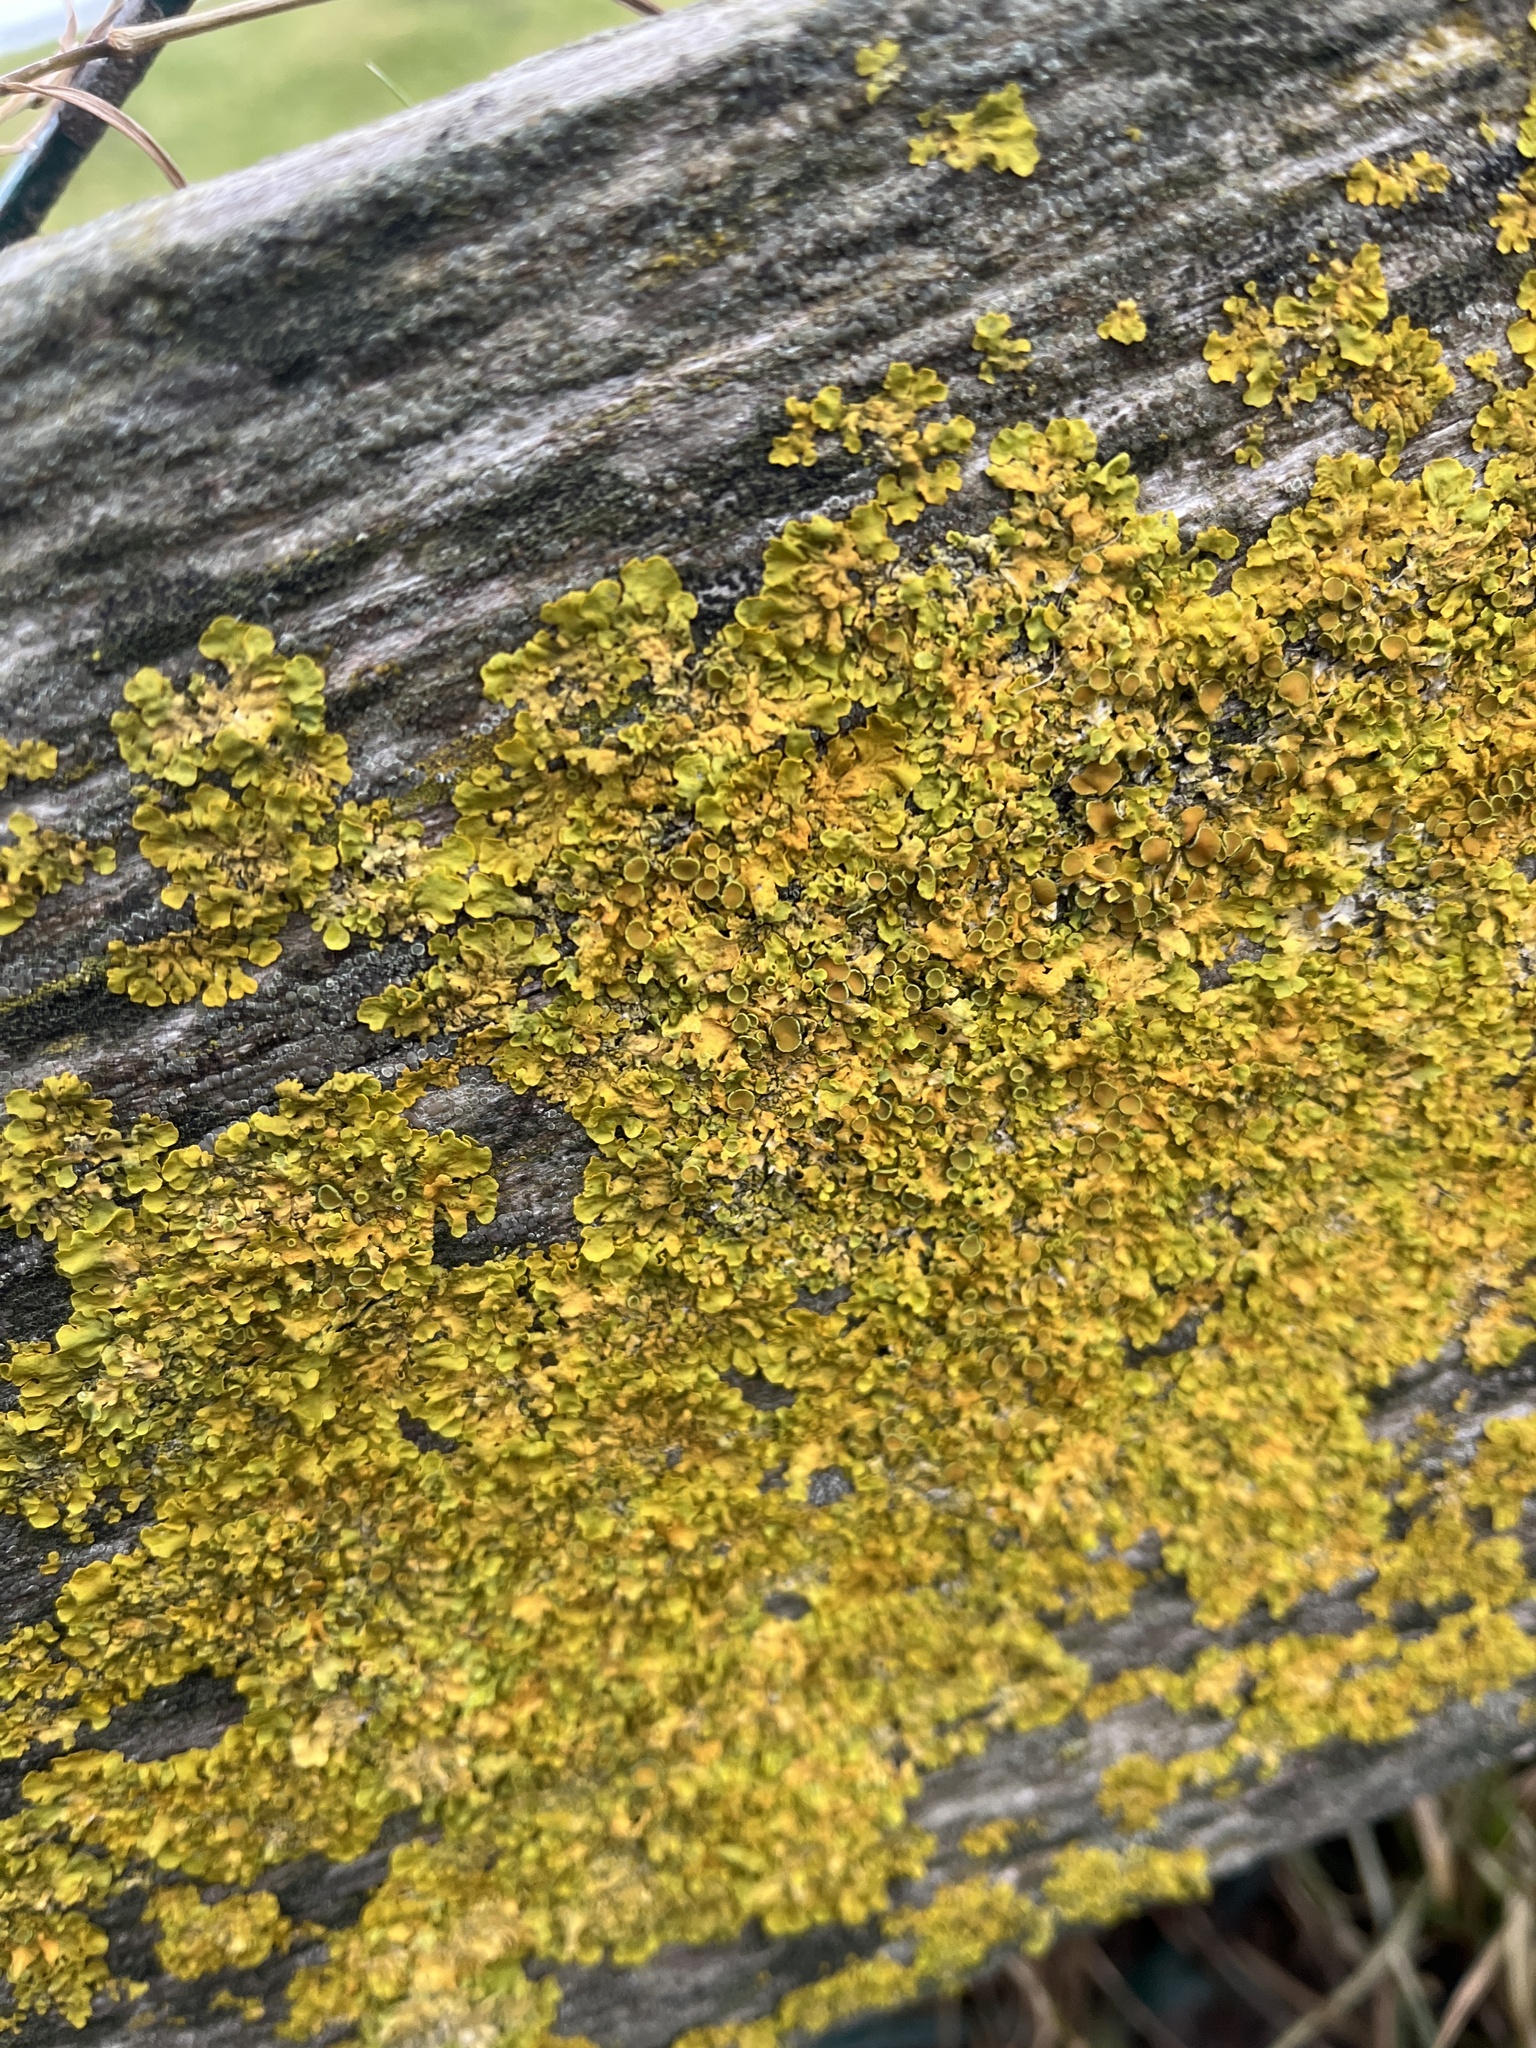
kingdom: Fungi
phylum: Ascomycota
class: Lecanoromycetes
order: Teloschistales
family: Teloschistaceae
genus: Xanthoria
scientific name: Xanthoria parietina
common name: Common orange lichen
